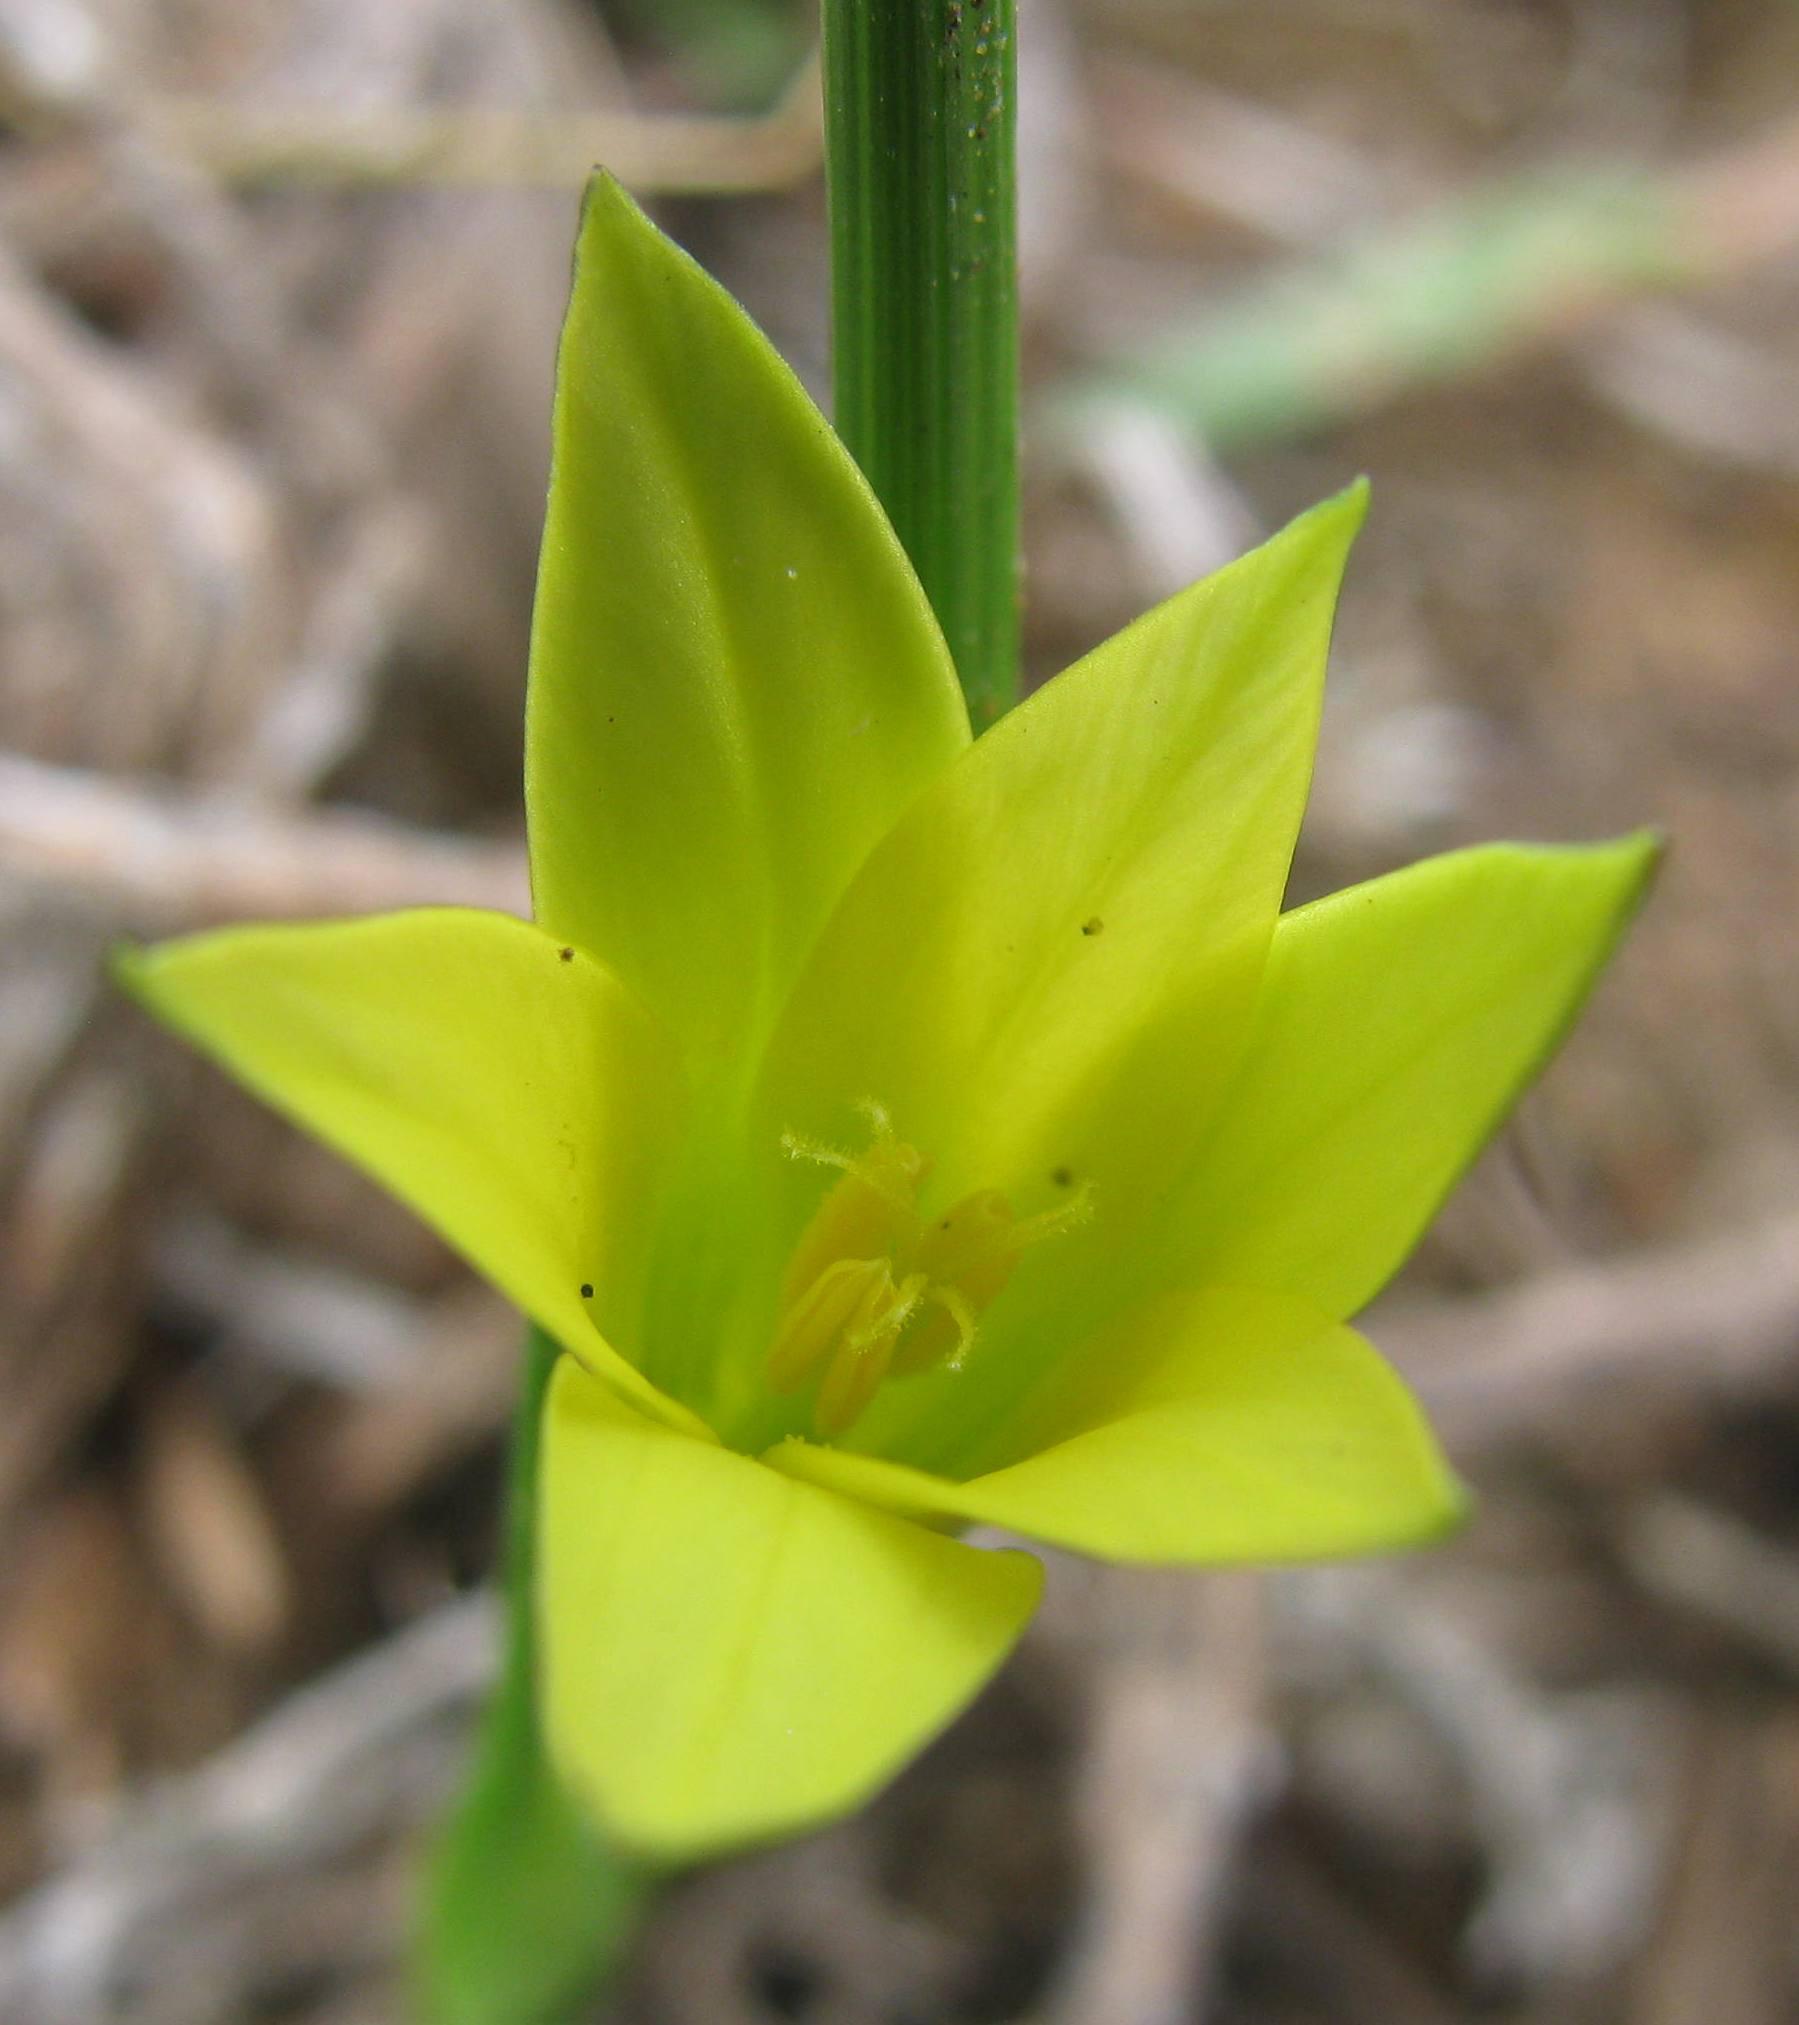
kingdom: Plantae
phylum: Tracheophyta
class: Liliopsida
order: Asparagales
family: Iridaceae
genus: Romulea
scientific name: Romulea flava
